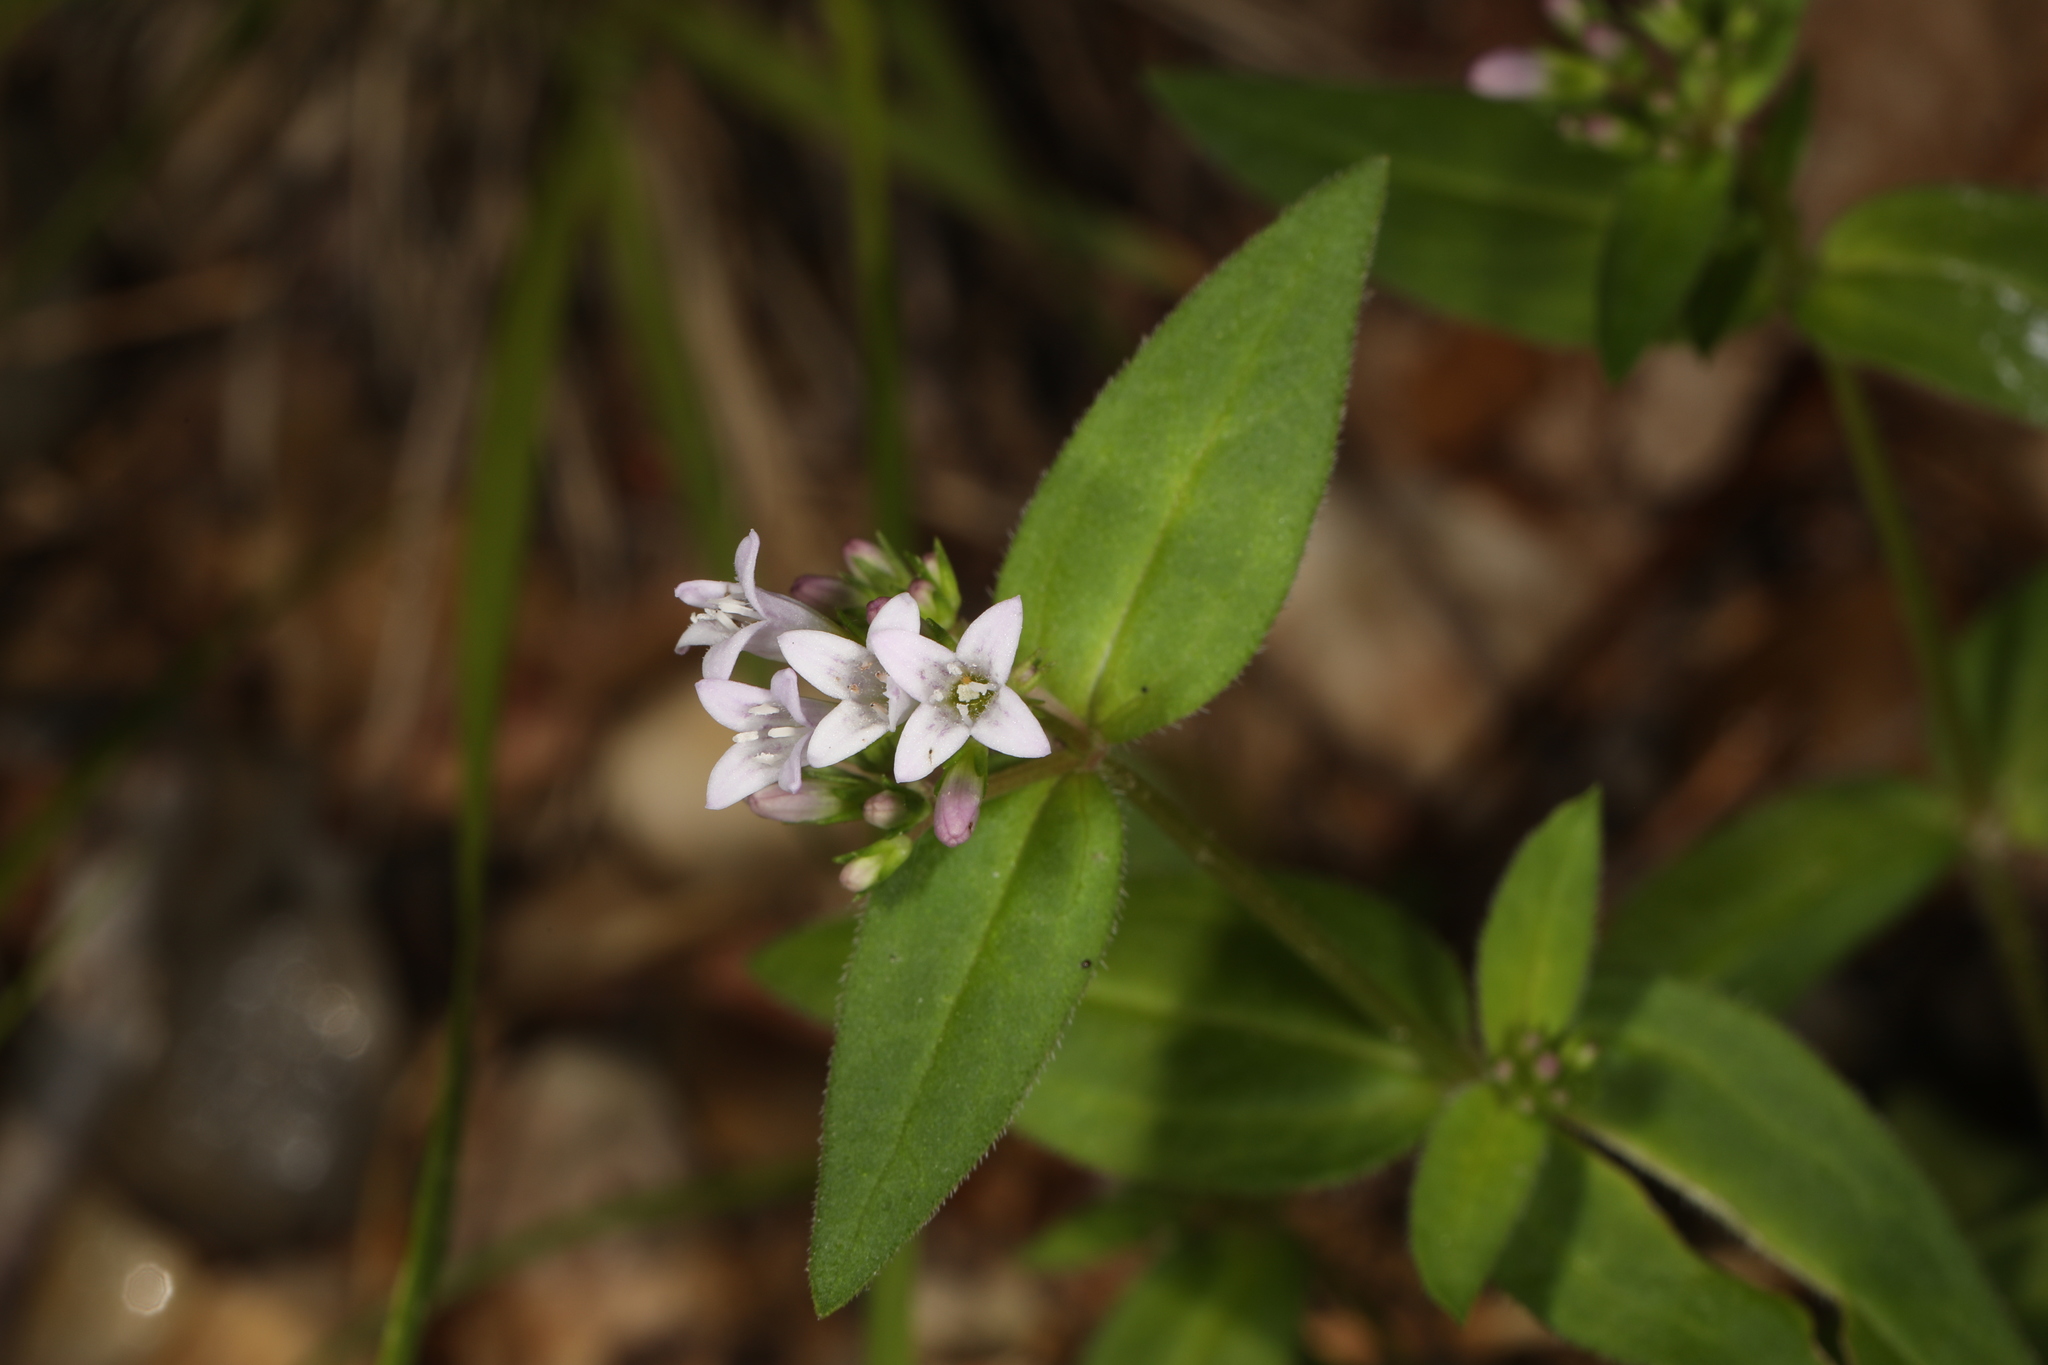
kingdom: Plantae
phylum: Tracheophyta
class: Magnoliopsida
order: Gentianales
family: Rubiaceae
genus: Houstonia
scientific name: Houstonia purpurea
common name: Summer bluet
